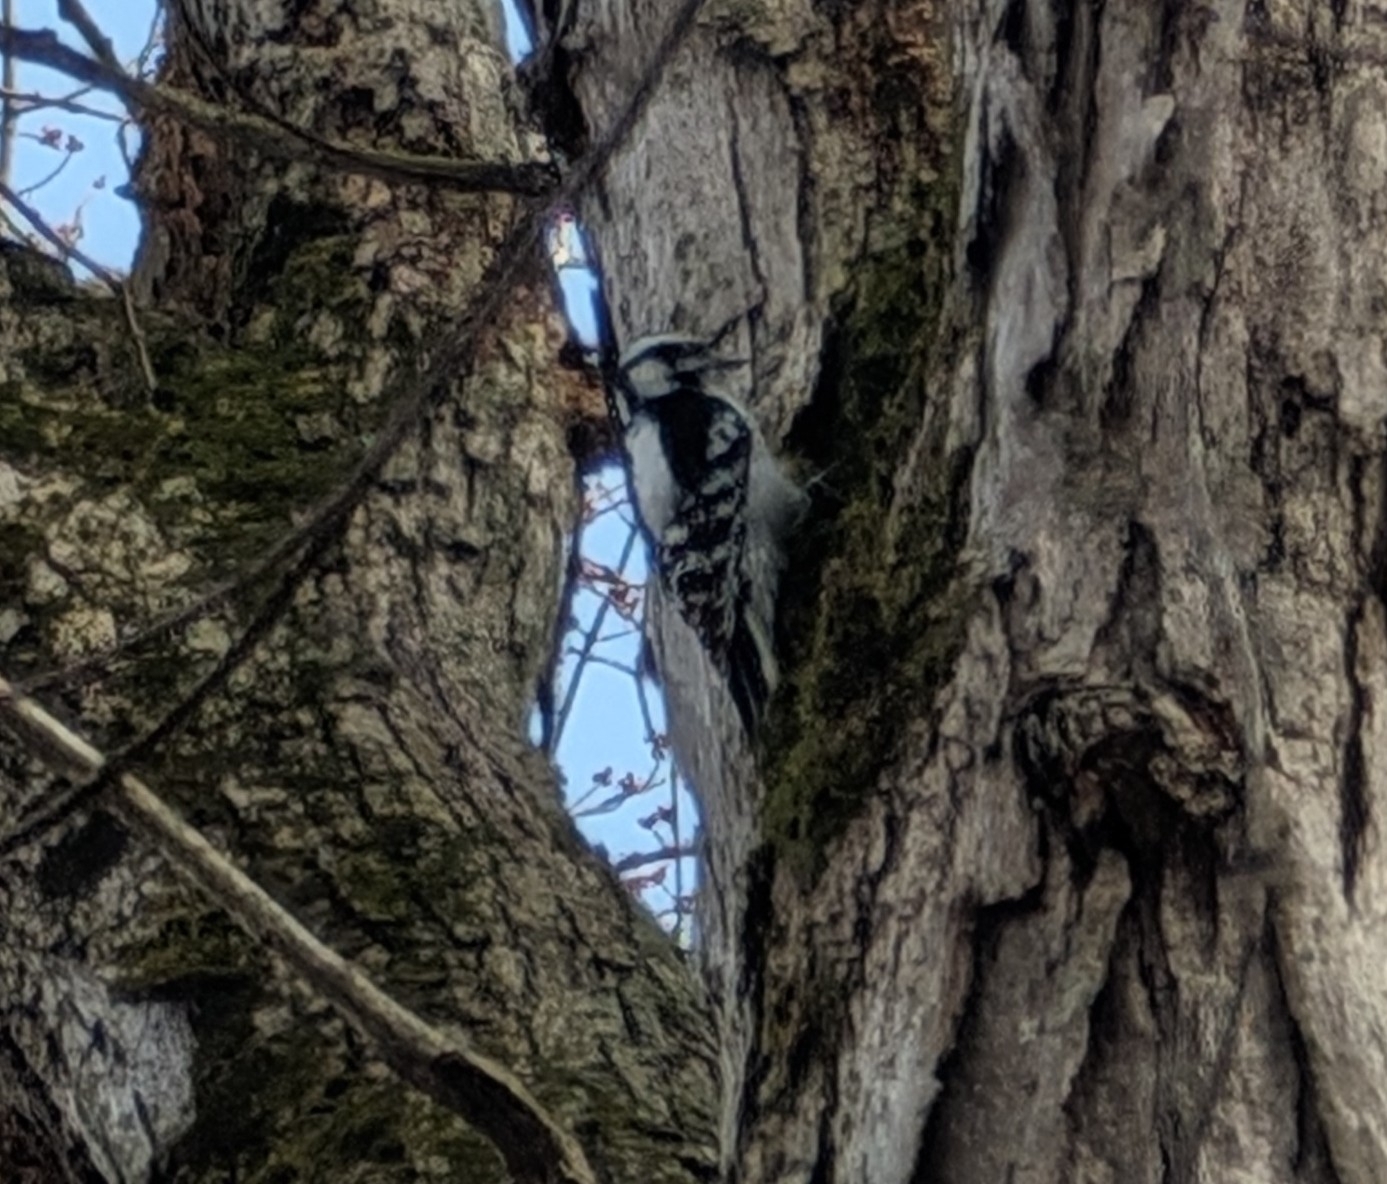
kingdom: Animalia
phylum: Chordata
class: Aves
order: Piciformes
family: Picidae
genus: Dryobates
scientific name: Dryobates pubescens
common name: Downy woodpecker
